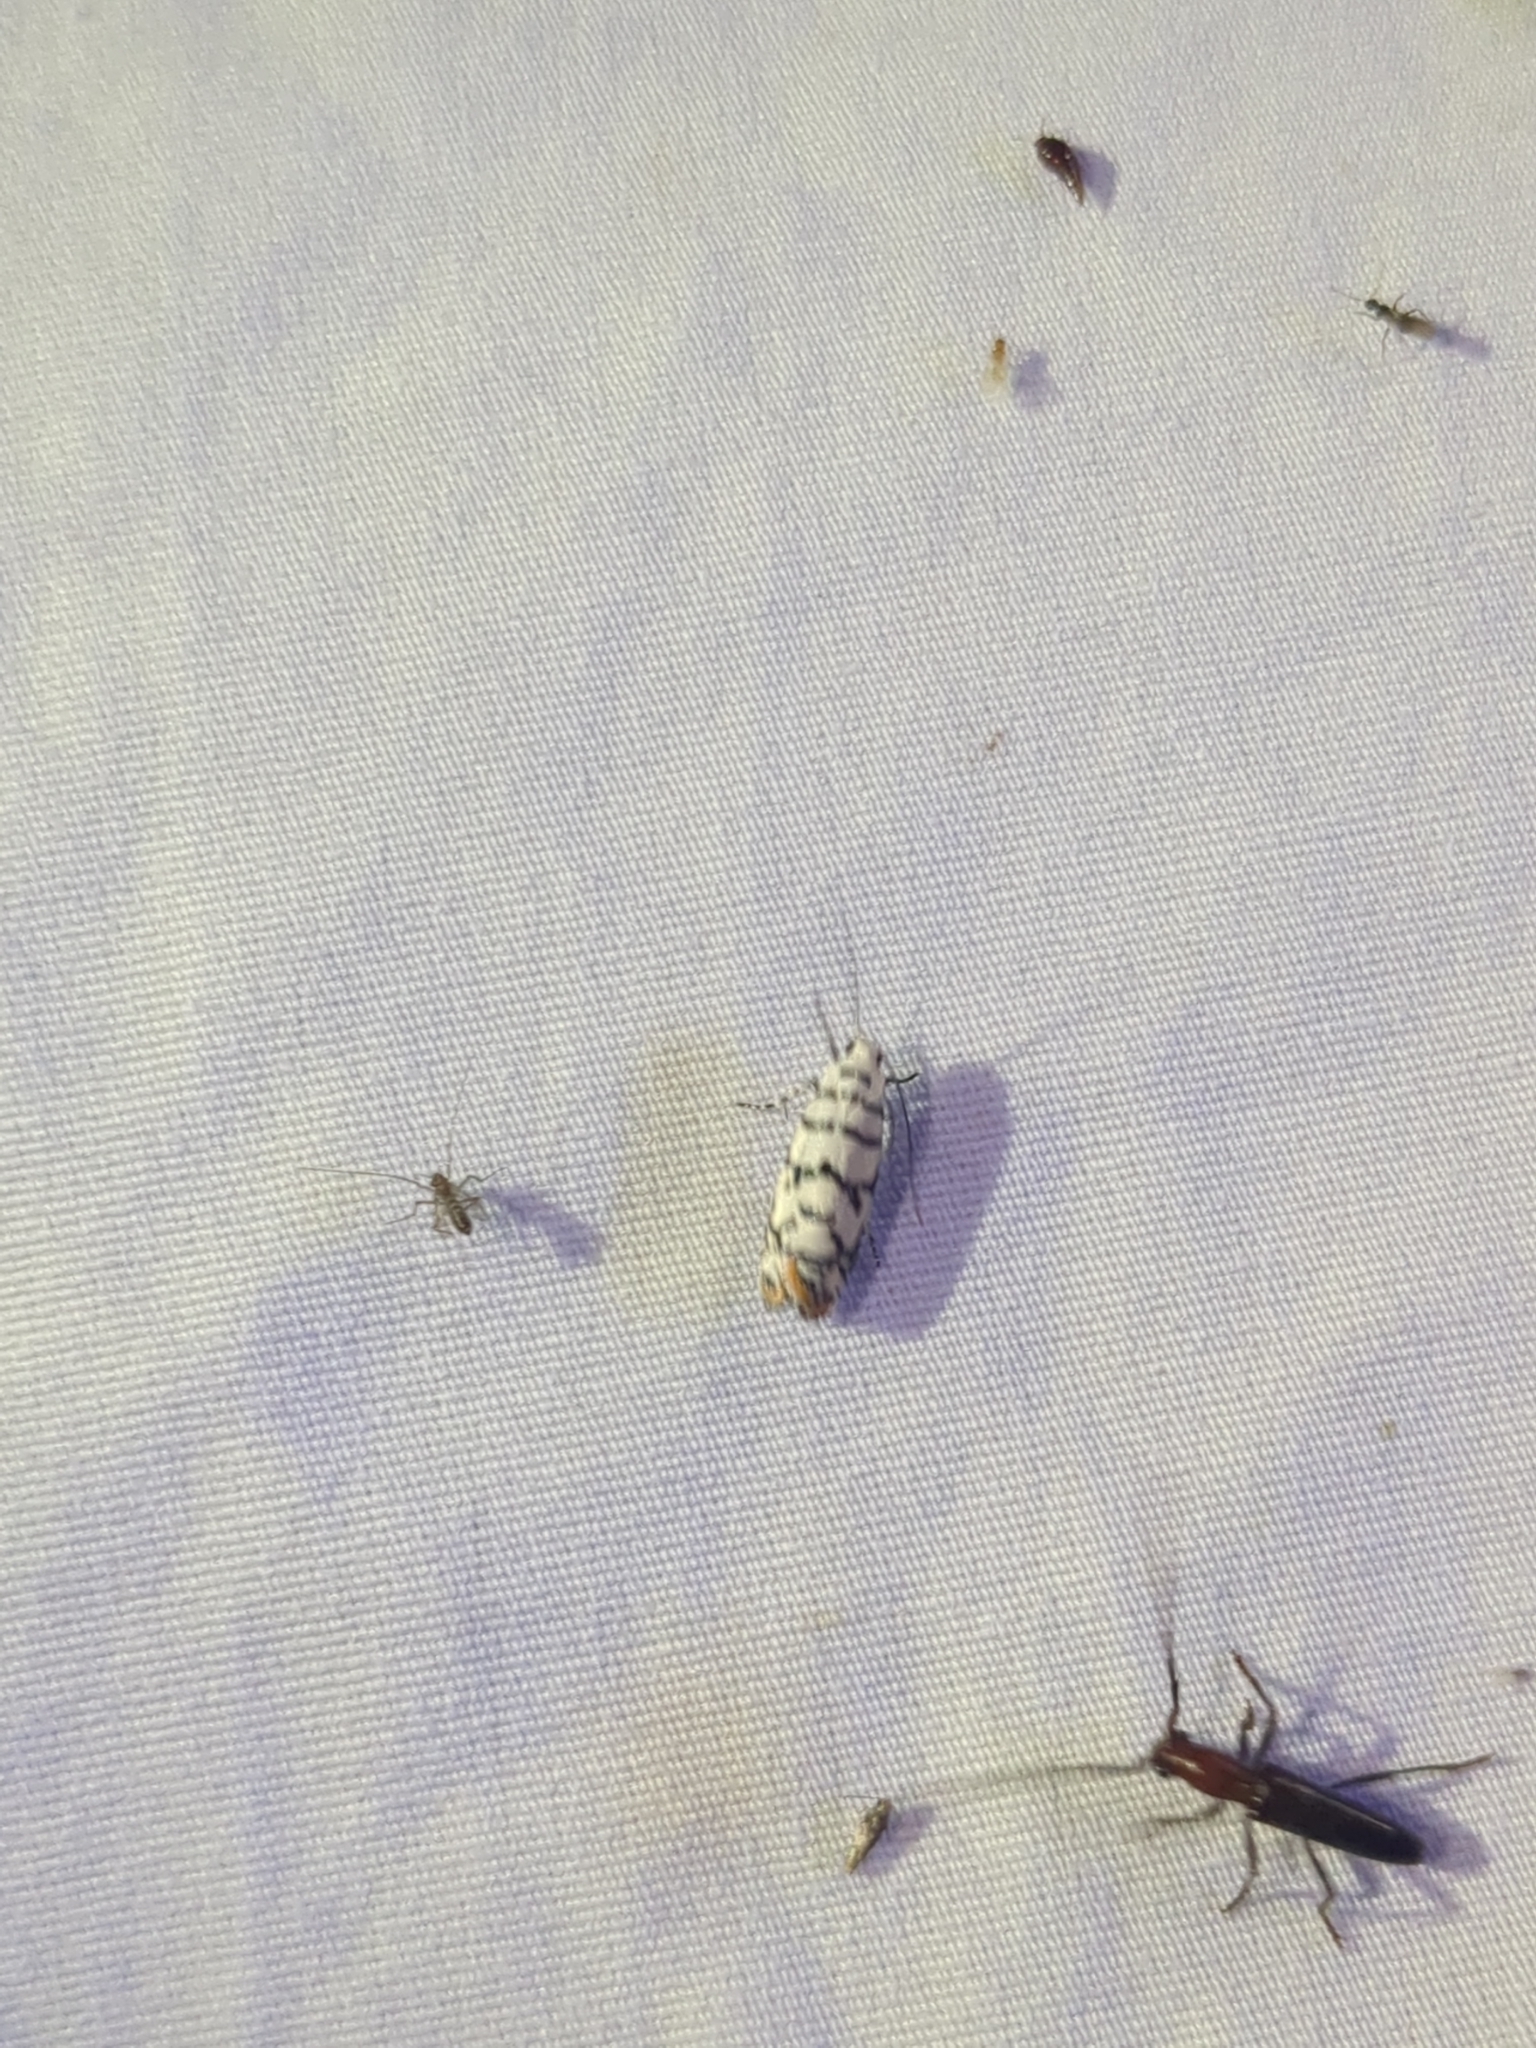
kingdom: Animalia
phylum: Arthropoda
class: Insecta
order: Lepidoptera
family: Ethmiidae
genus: Ethmia
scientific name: Ethmia delliella
